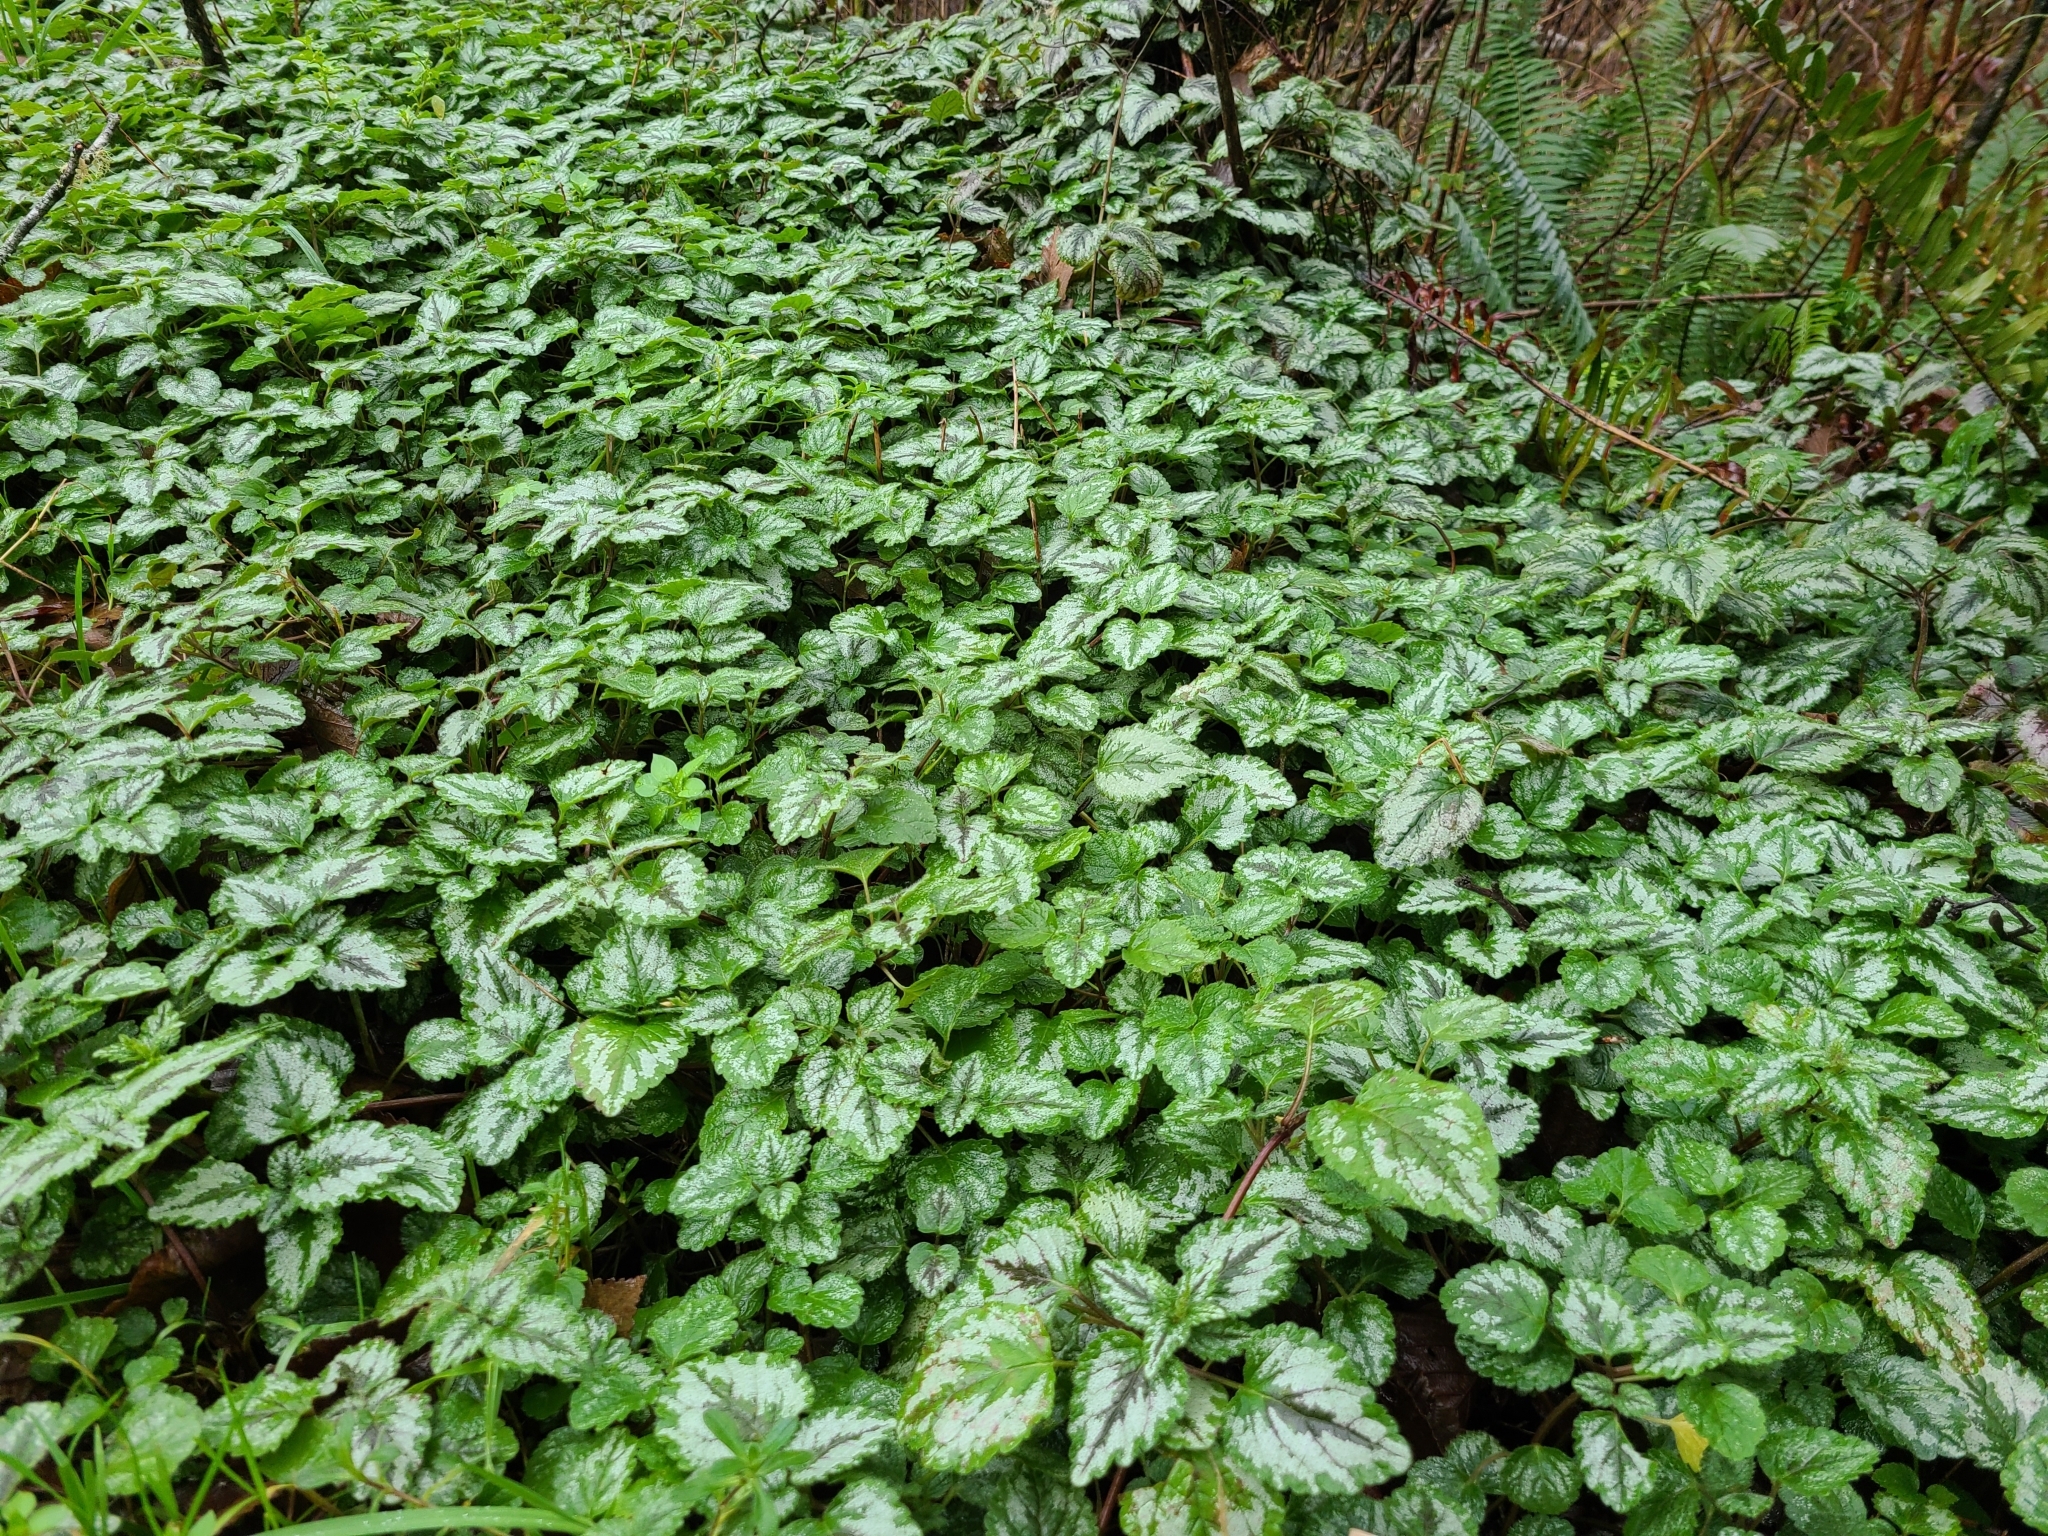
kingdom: Plantae
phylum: Tracheophyta
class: Magnoliopsida
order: Lamiales
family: Lamiaceae
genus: Lamium
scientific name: Lamium galeobdolon
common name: Yellow archangel
